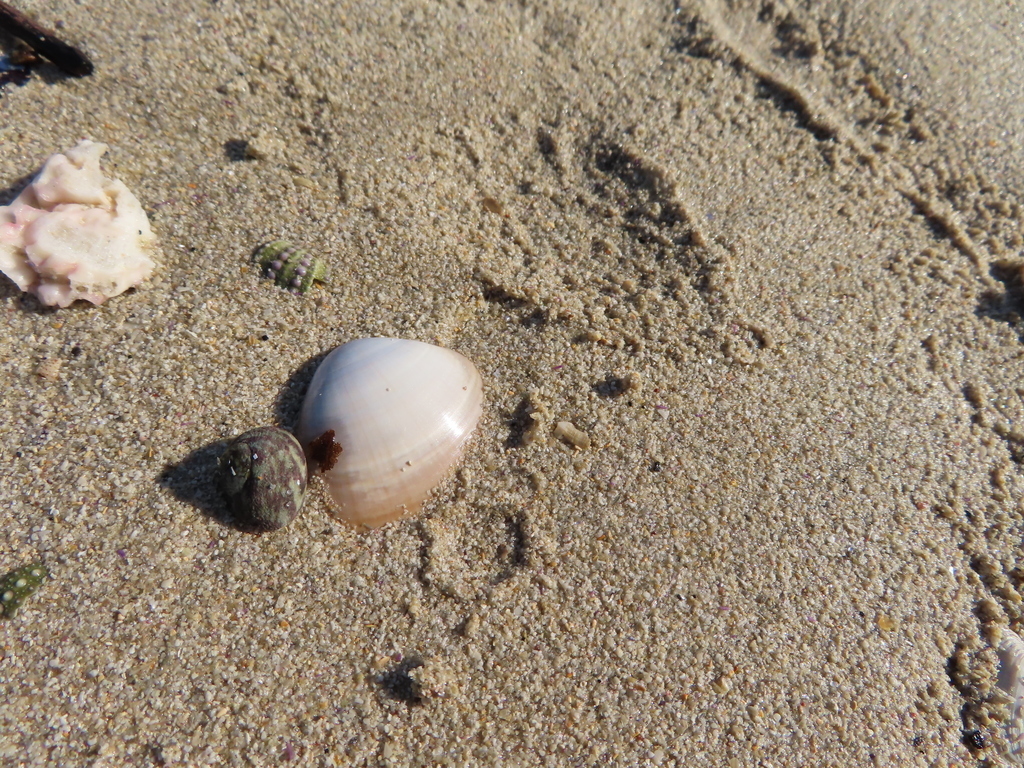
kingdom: Animalia
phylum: Mollusca
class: Gastropoda
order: Trochida
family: Trochidae
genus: Gibbula
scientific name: Gibbula cicer
